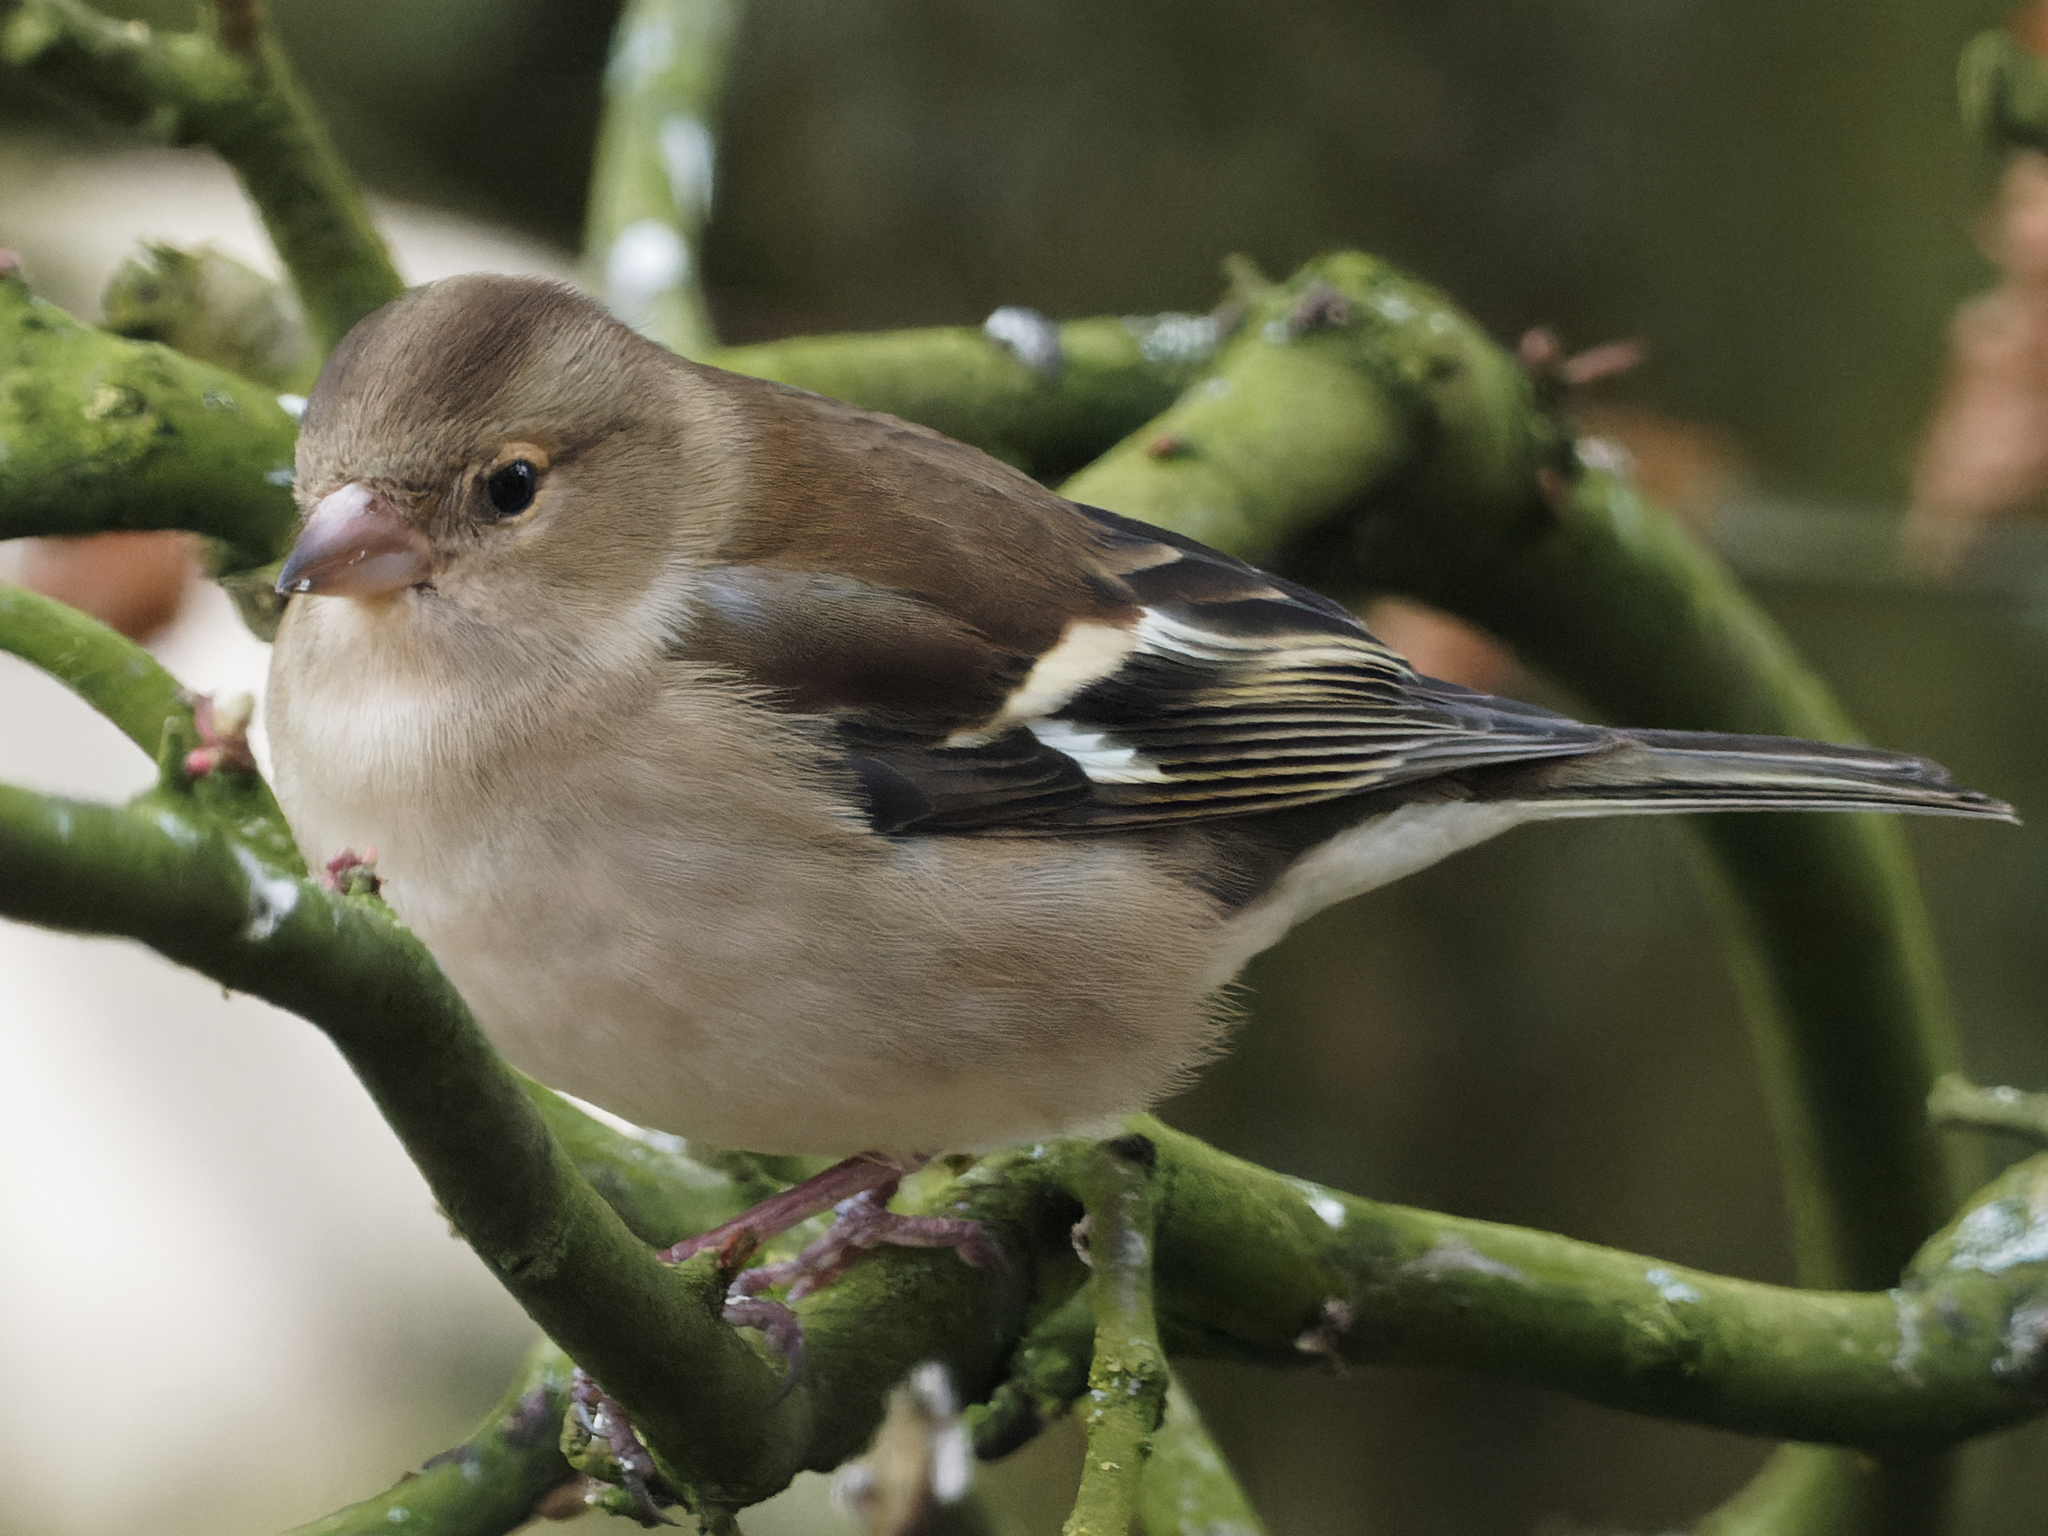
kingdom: Animalia
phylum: Chordata
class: Aves
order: Passeriformes
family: Fringillidae
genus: Fringilla
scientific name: Fringilla coelebs
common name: Common chaffinch
